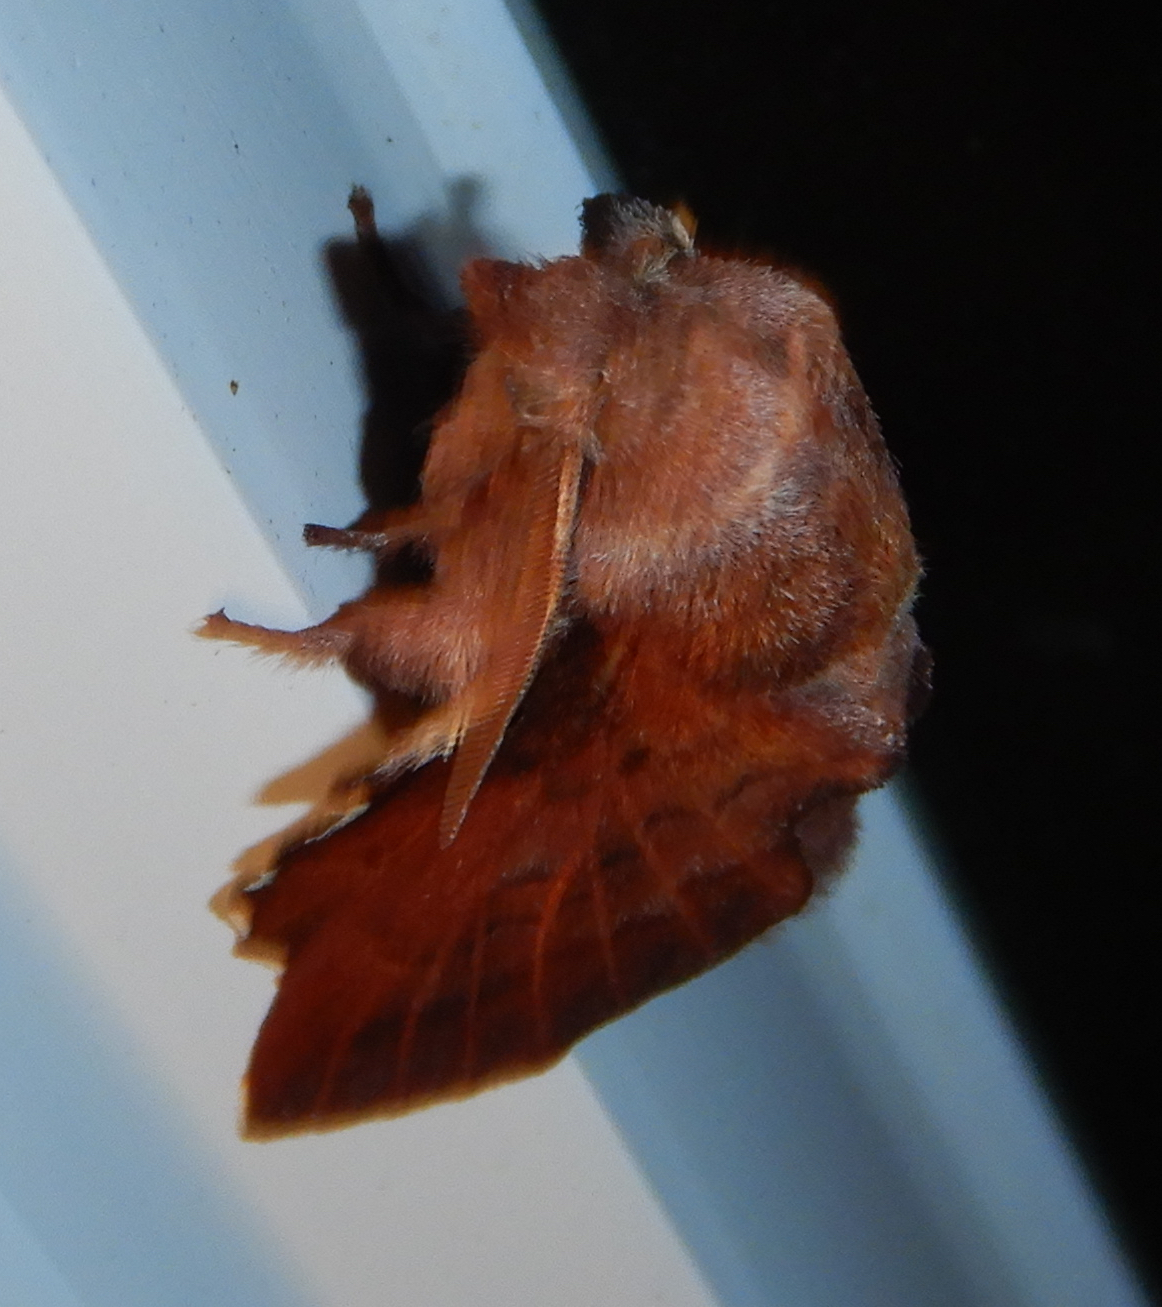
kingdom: Animalia
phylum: Arthropoda
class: Insecta
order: Lepidoptera
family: Lasiocampidae
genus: Phyllodesma
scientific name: Phyllodesma americana
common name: American lappet moth
